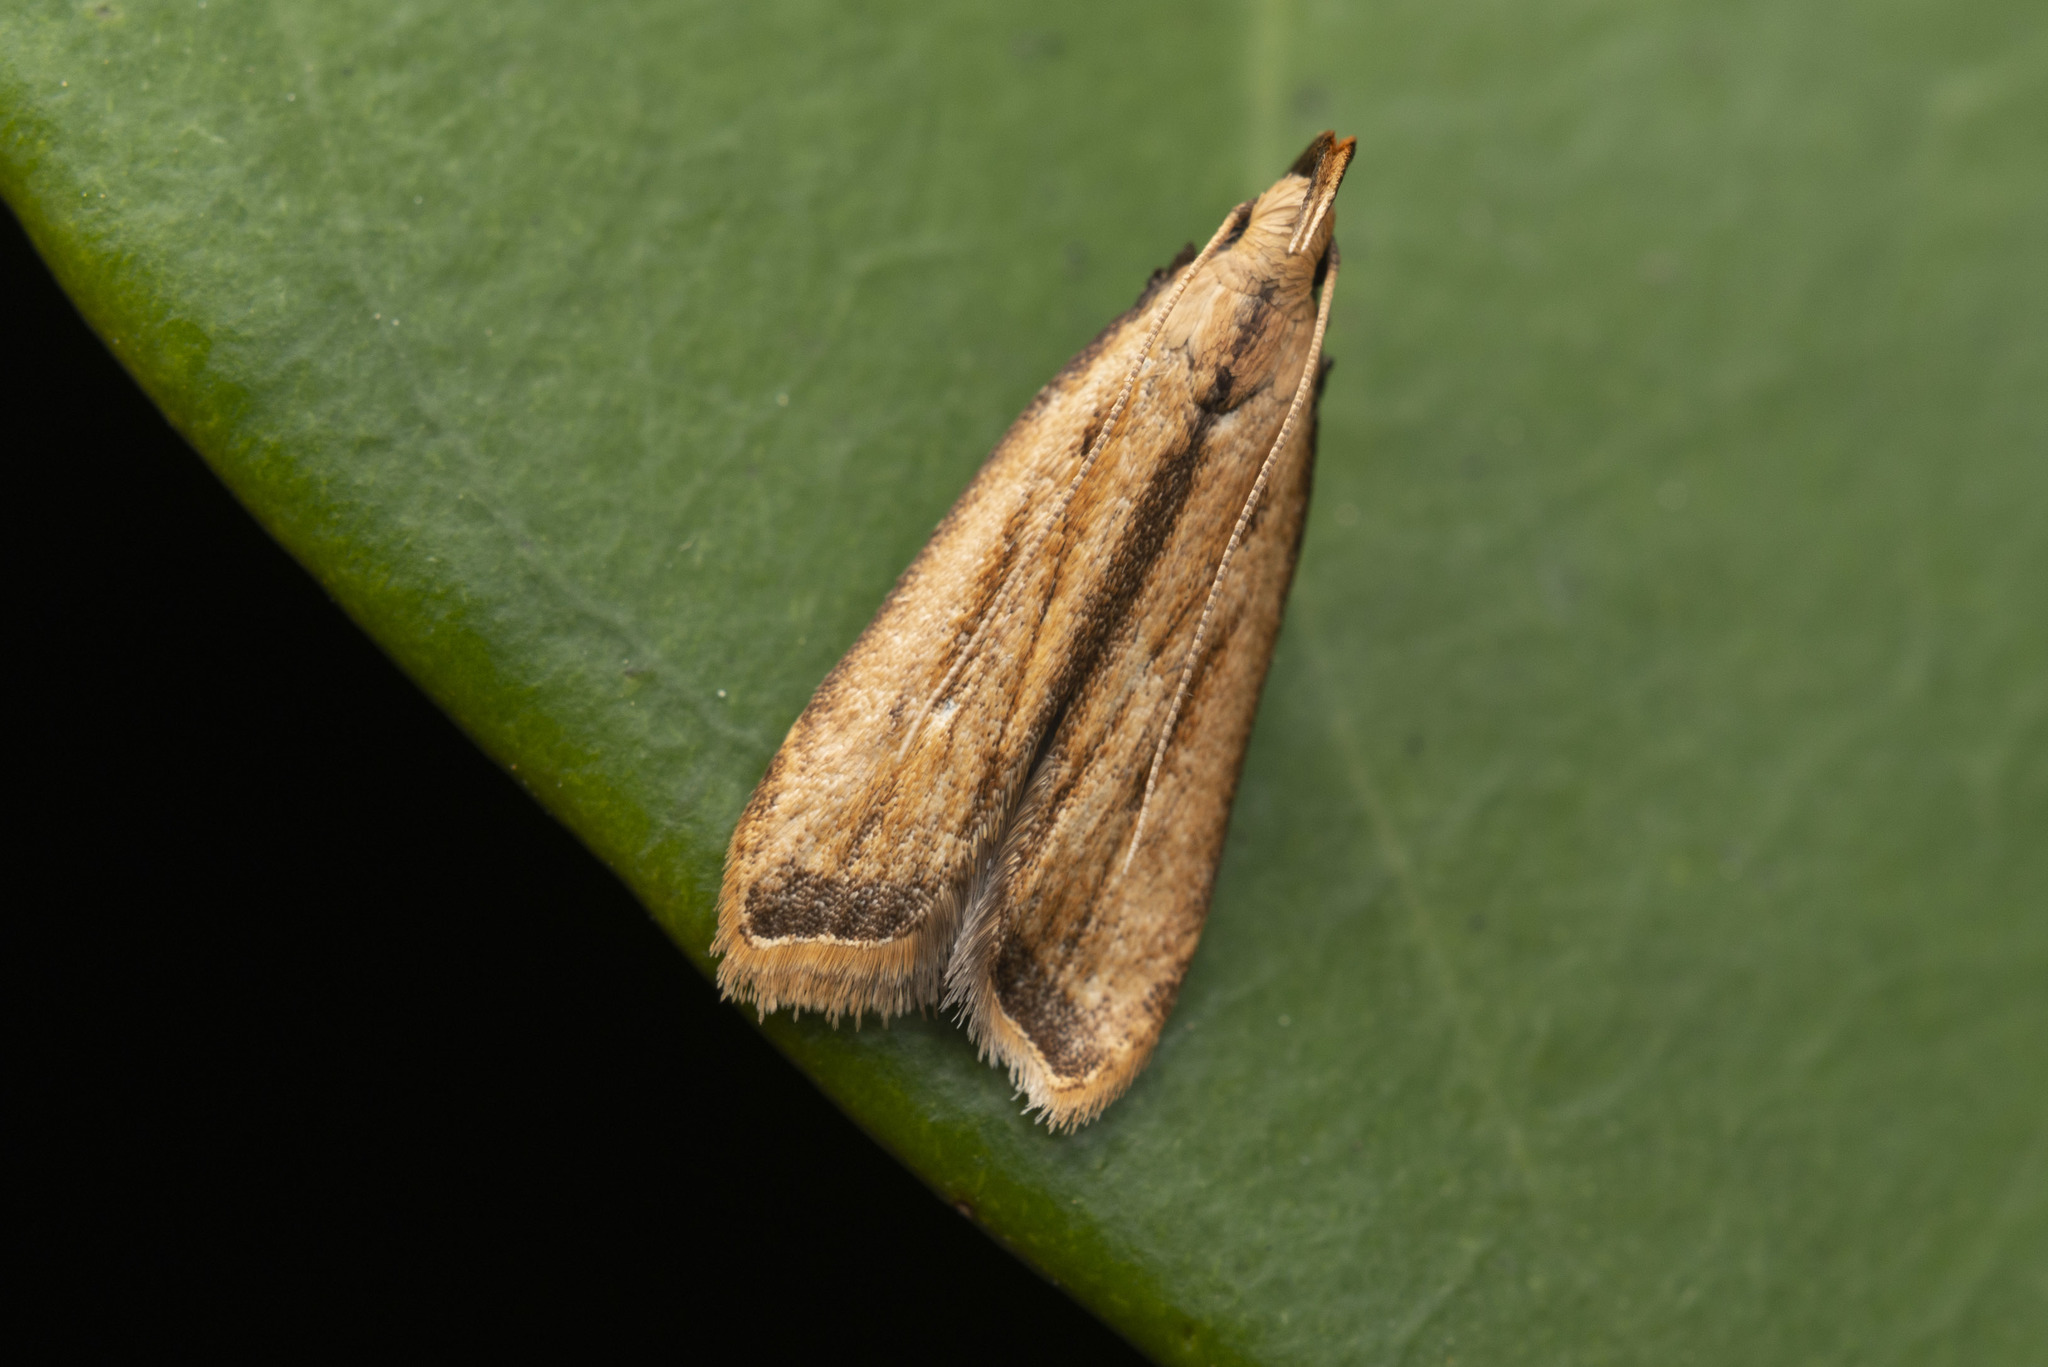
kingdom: Animalia
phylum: Arthropoda
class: Insecta
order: Lepidoptera
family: Gelechiidae
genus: Dichomeris
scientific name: Dichomeris parvisexafurca
